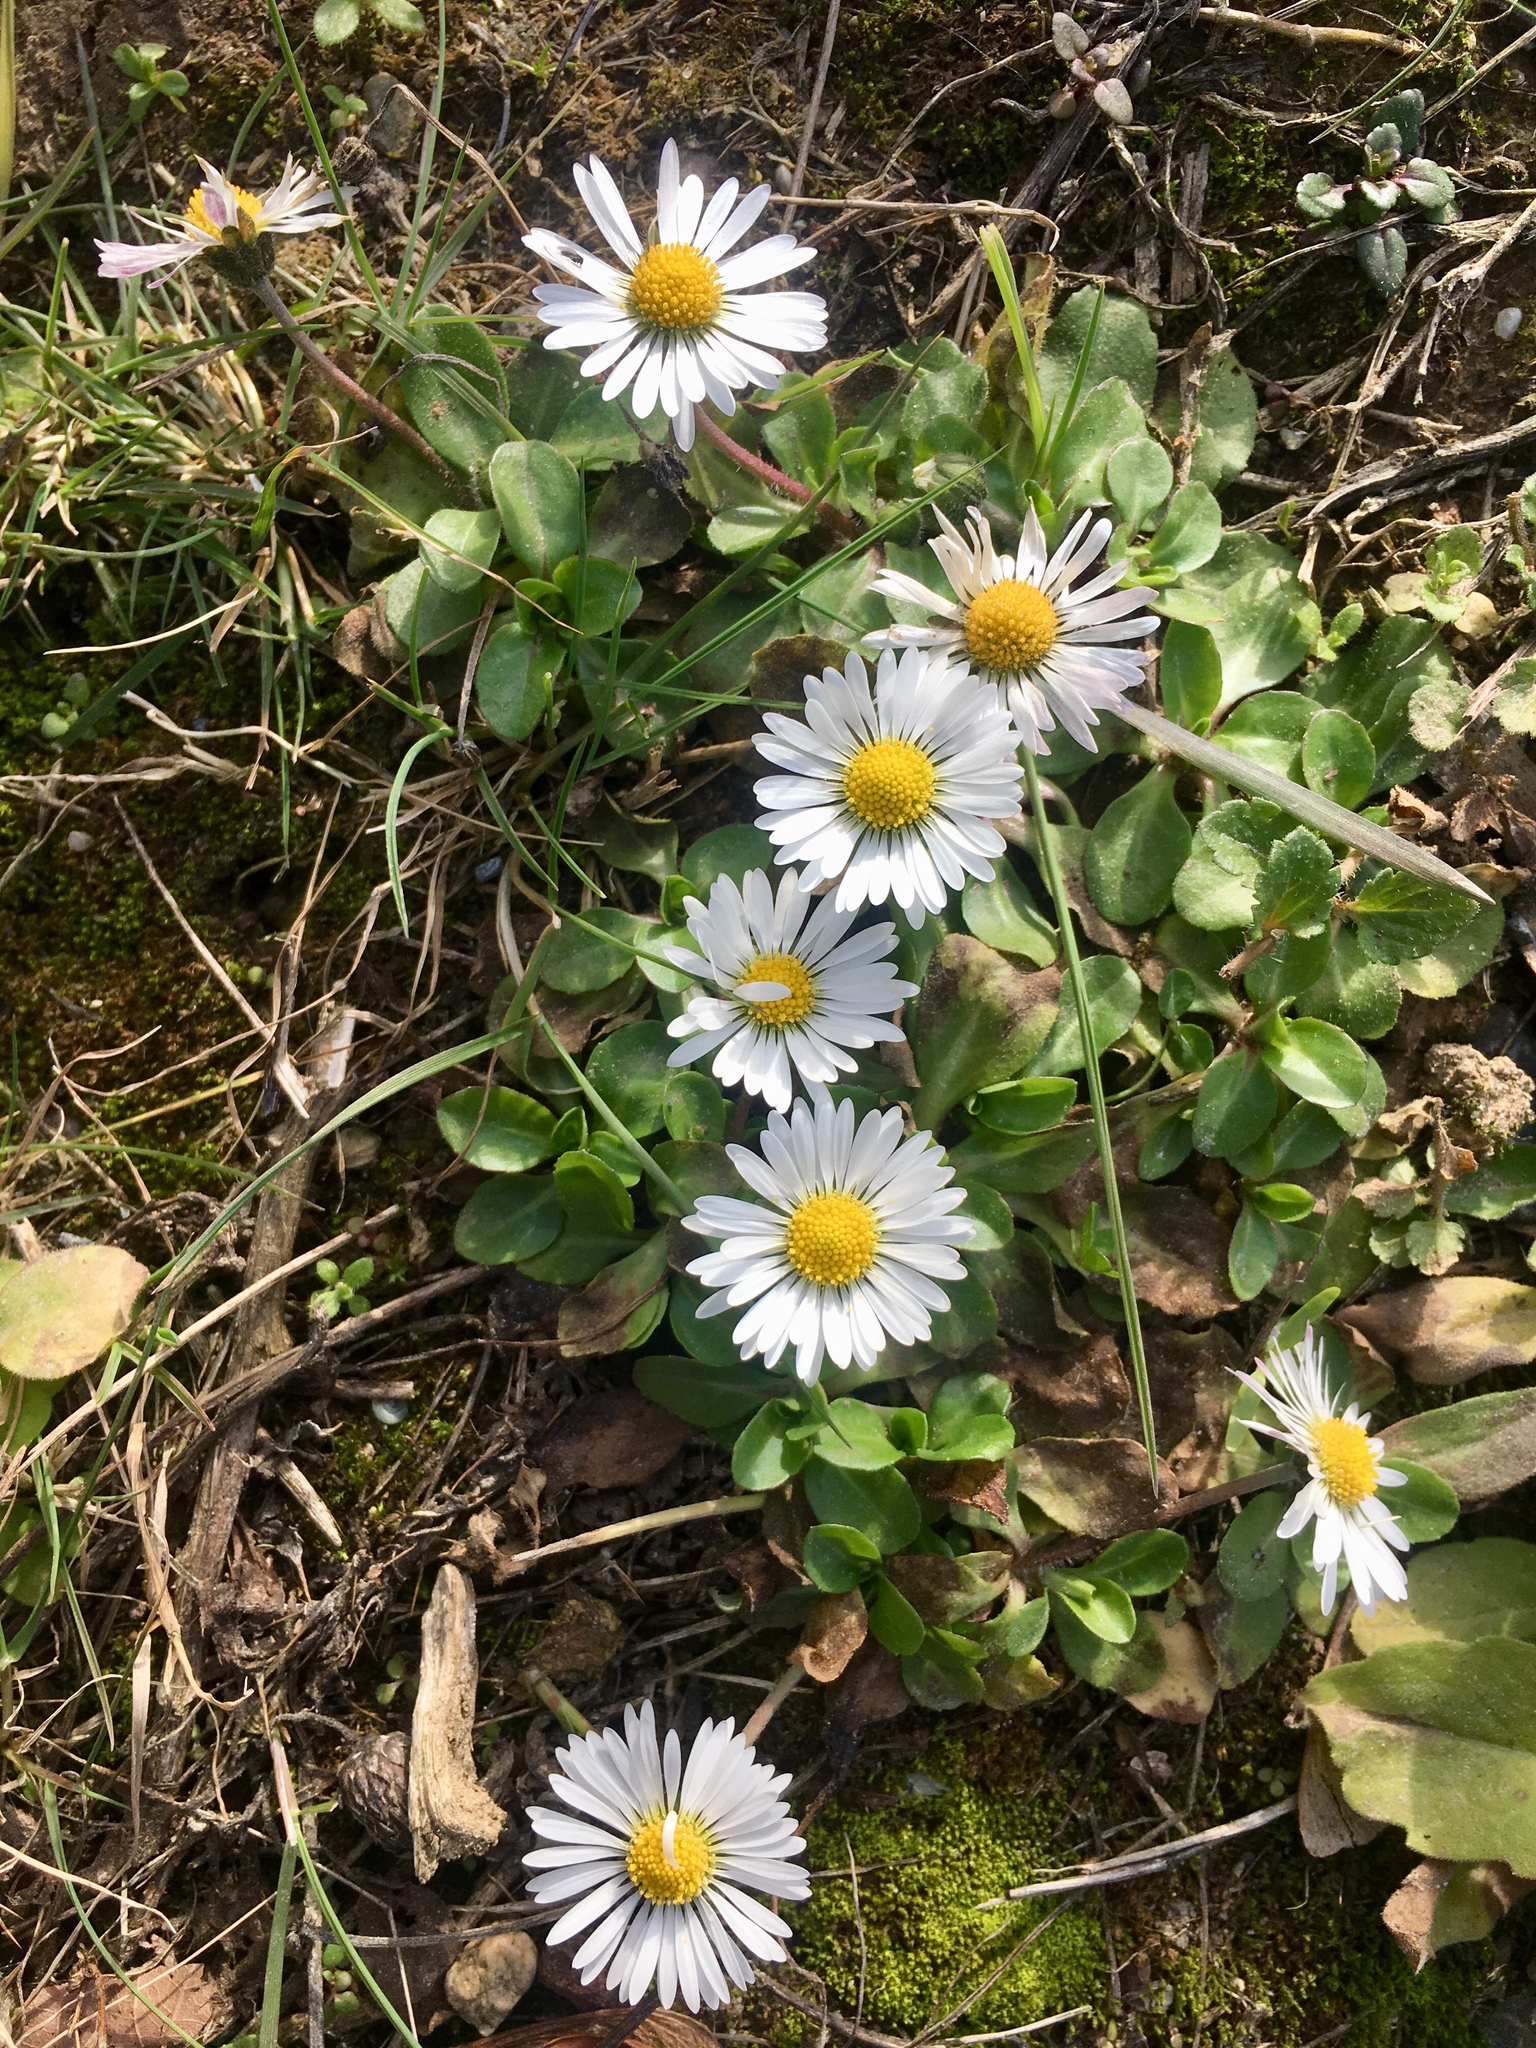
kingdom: Plantae
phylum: Tracheophyta
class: Magnoliopsida
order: Asterales
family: Asteraceae
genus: Bellis
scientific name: Bellis perennis
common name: Lawndaisy
